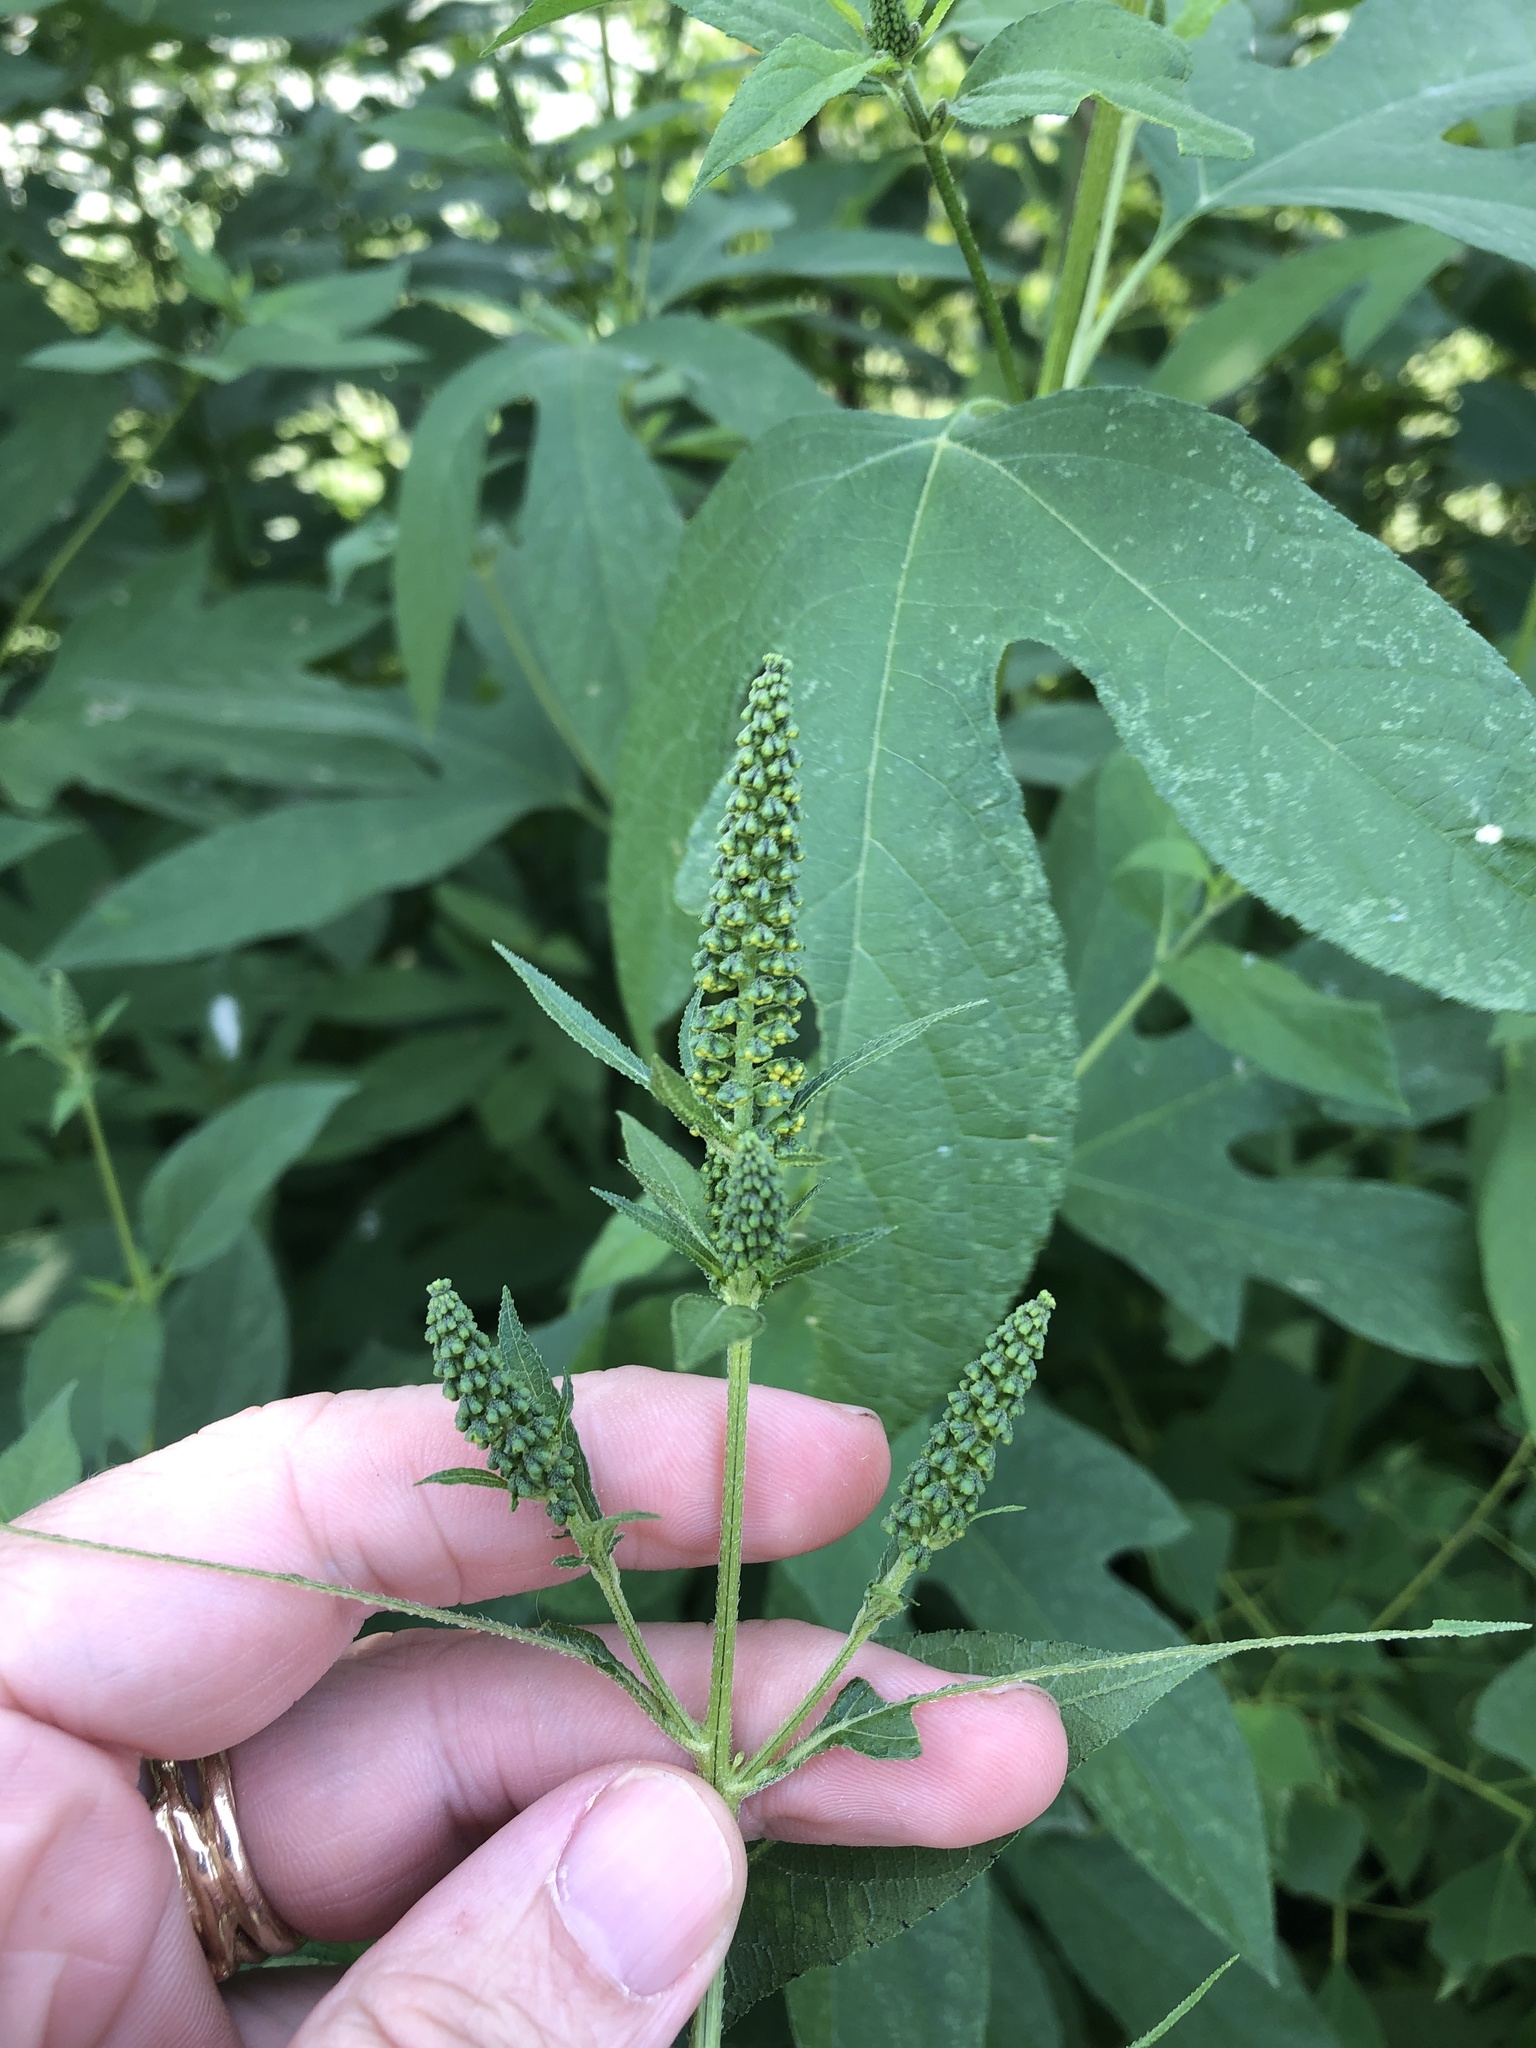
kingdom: Plantae
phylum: Tracheophyta
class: Magnoliopsida
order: Asterales
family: Asteraceae
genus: Ambrosia
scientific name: Ambrosia trifida
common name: Giant ragweed
